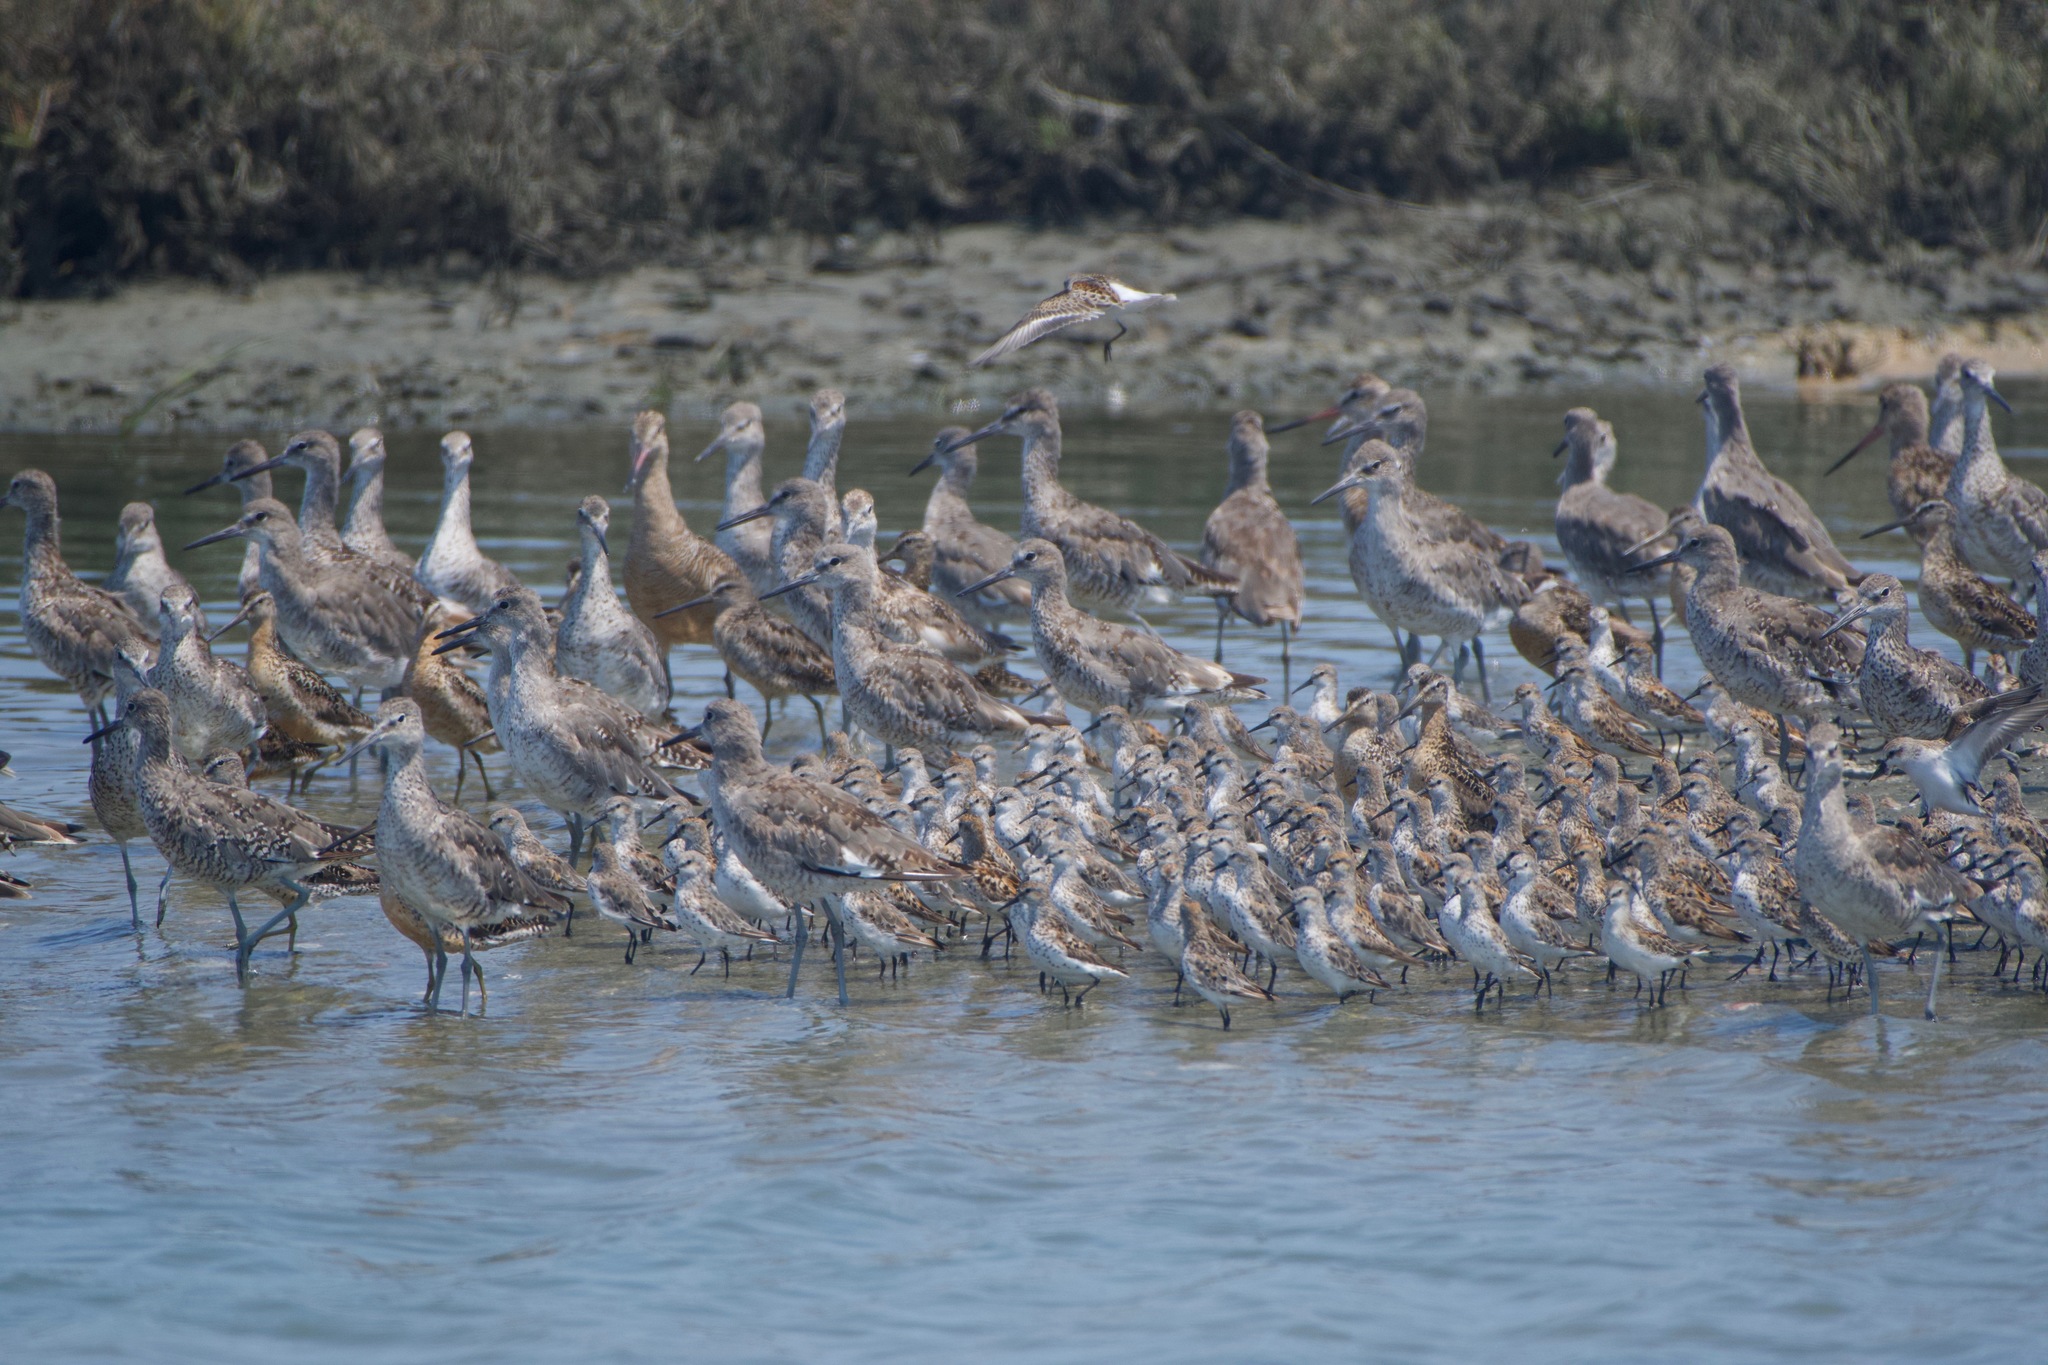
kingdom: Animalia
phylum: Chordata
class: Aves
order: Charadriiformes
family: Scolopacidae
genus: Calidris
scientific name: Calidris mauri
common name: Western sandpiper
